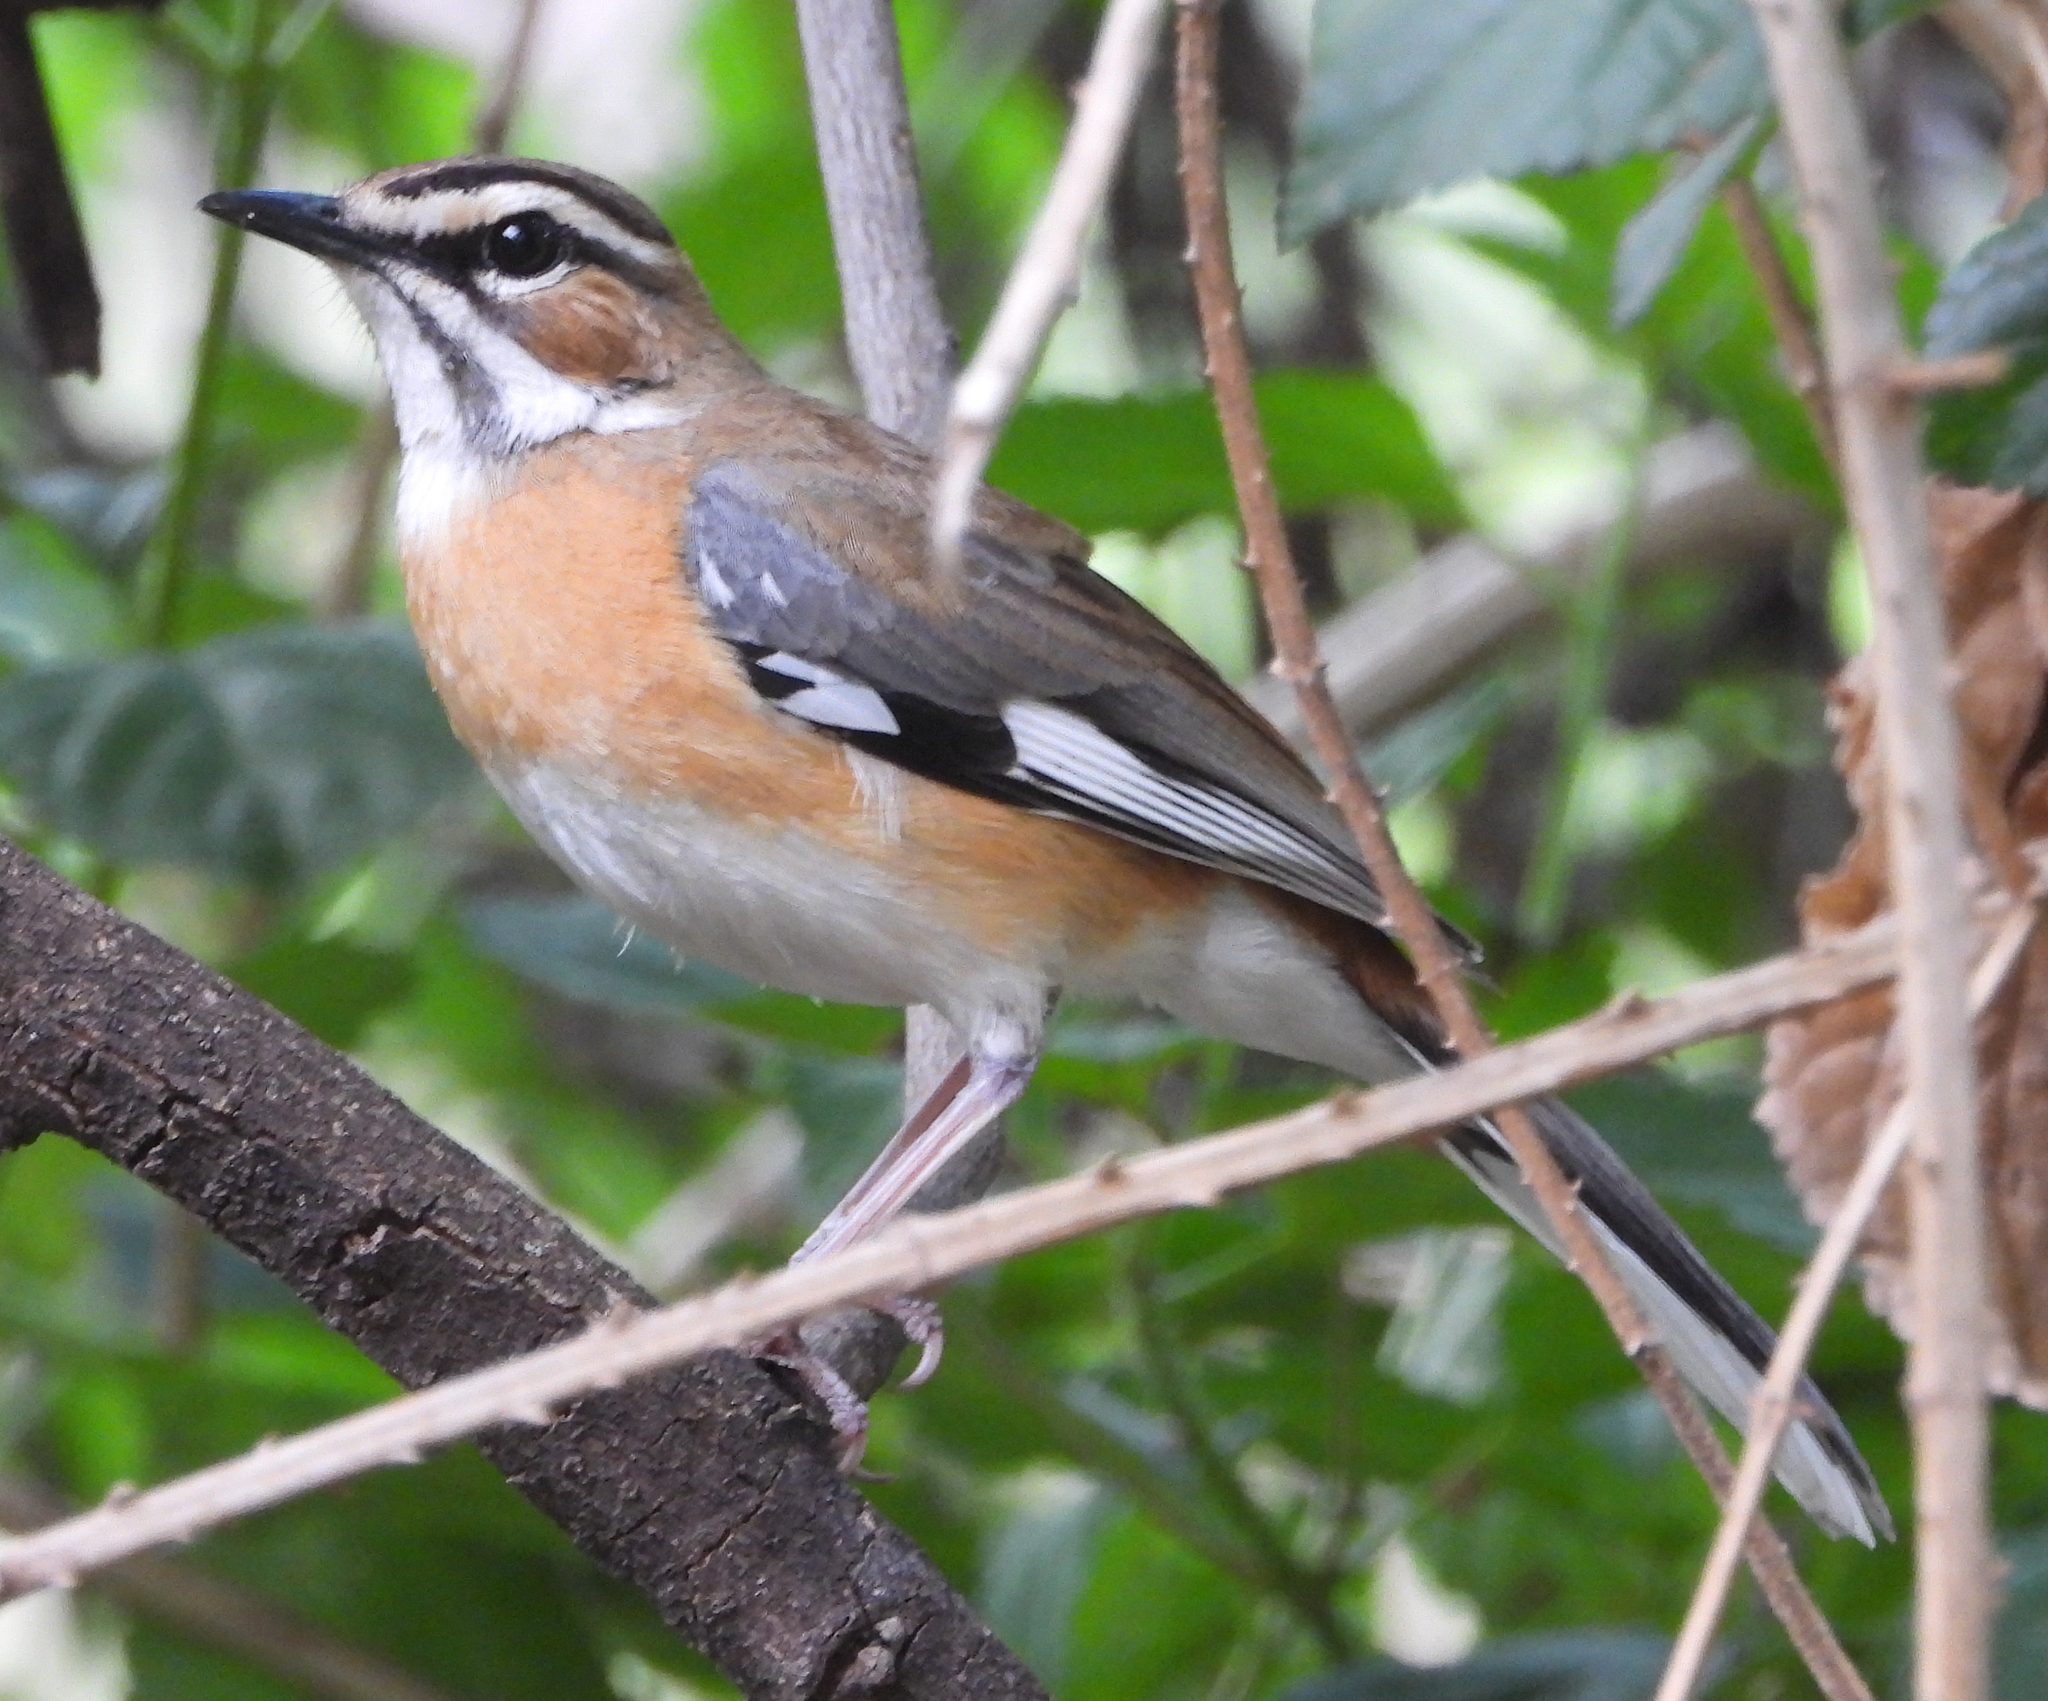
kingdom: Animalia
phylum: Chordata
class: Aves
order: Passeriformes
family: Muscicapidae
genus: Erythropygia
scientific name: Erythropygia quadrivirgata
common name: Bearded scrub robin
